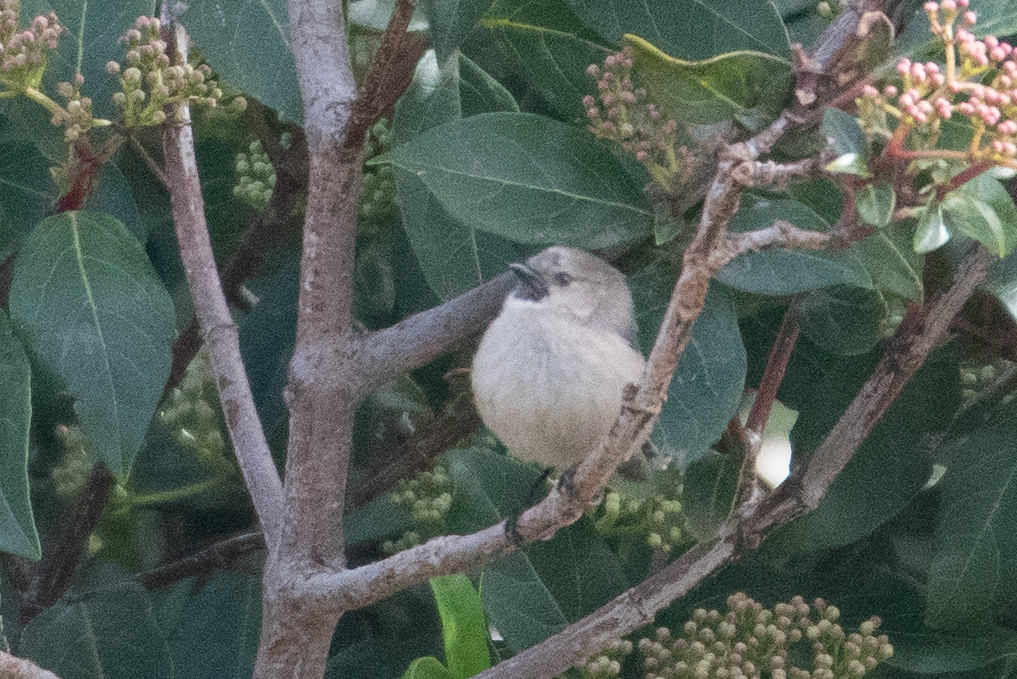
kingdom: Animalia
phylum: Chordata
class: Aves
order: Passeriformes
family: Aegithalidae
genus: Psaltriparus
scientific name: Psaltriparus minimus
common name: American bushtit
